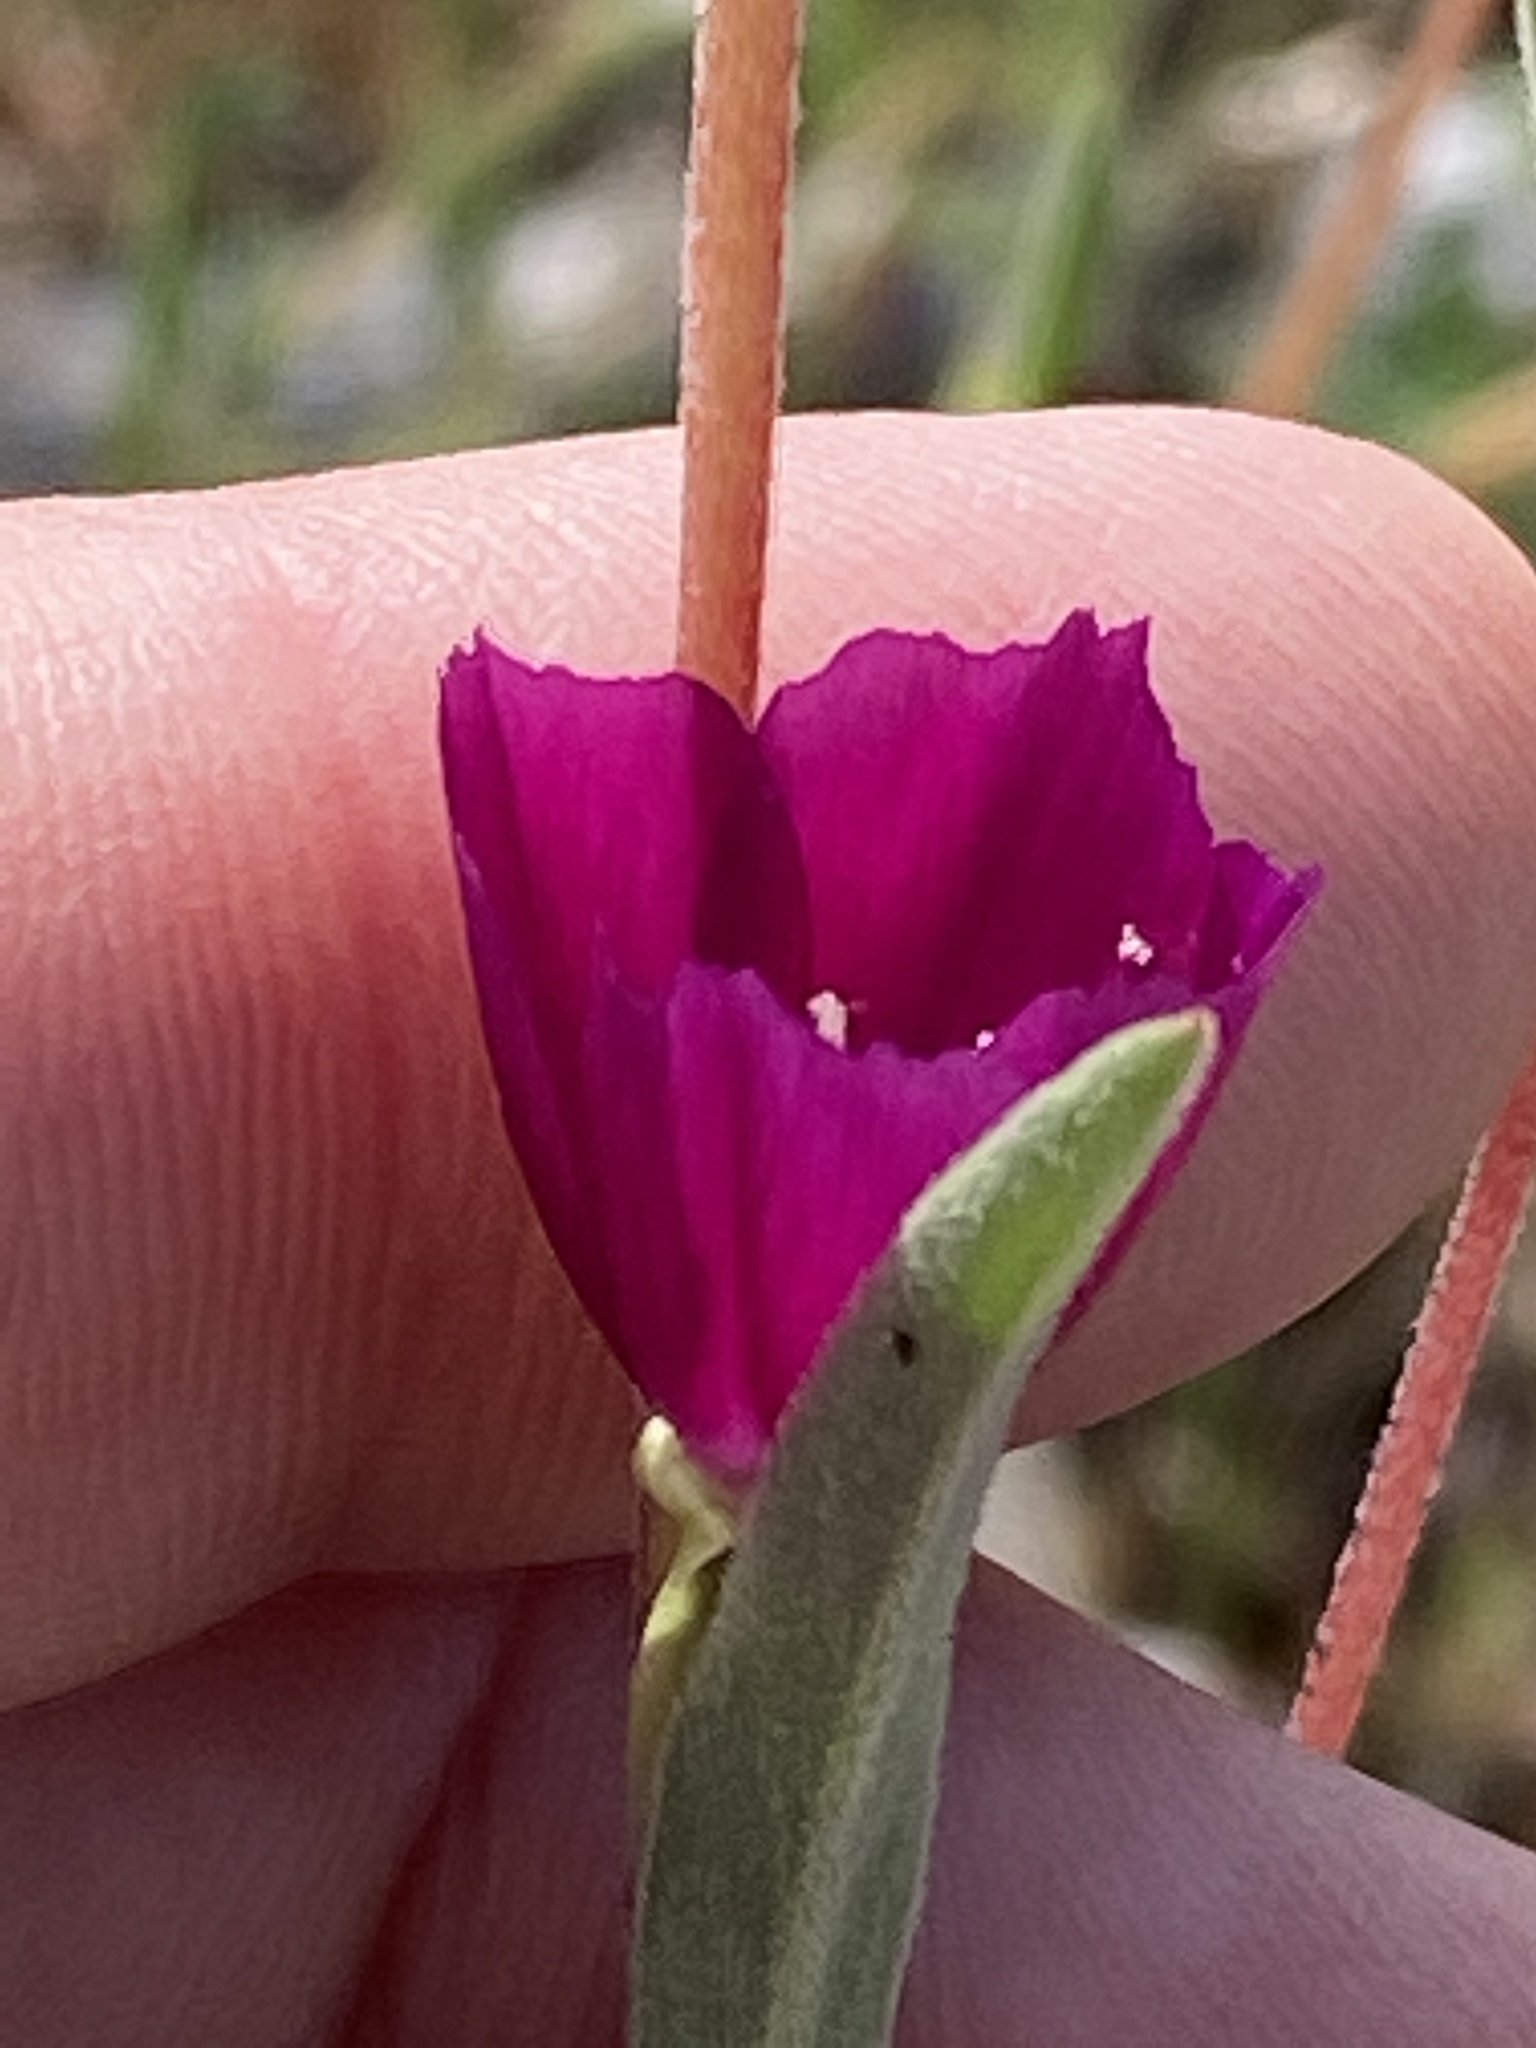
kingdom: Plantae
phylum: Tracheophyta
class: Magnoliopsida
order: Myrtales
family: Onagraceae
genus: Clarkia
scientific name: Clarkia purpurea
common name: Purple clarkia
